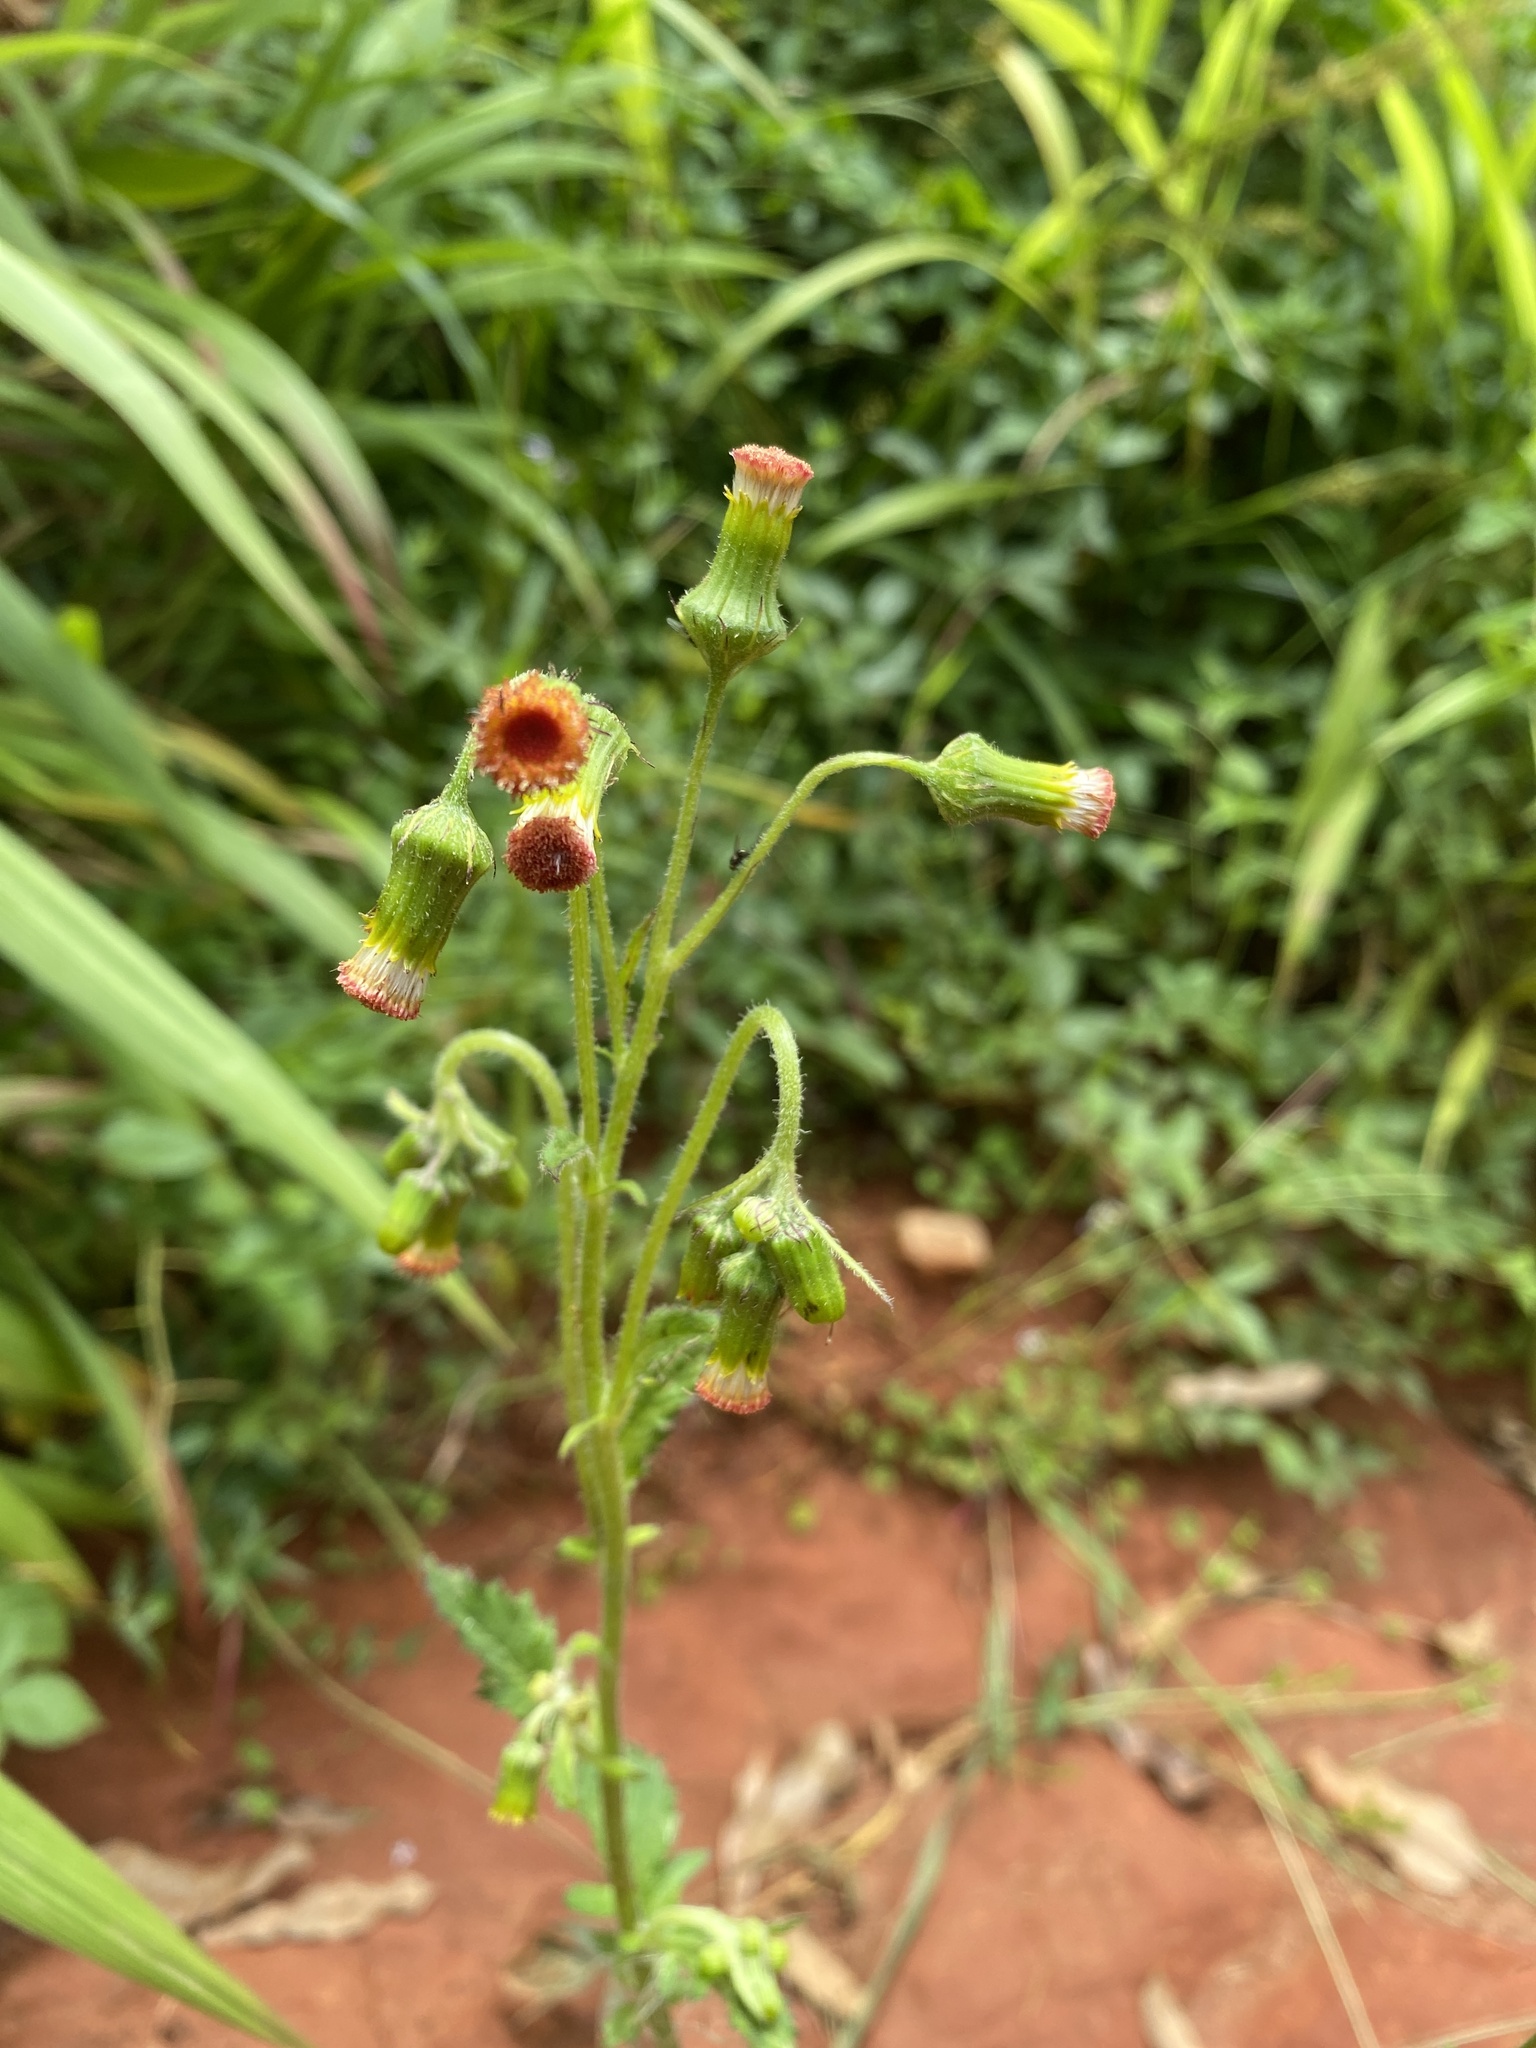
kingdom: Plantae
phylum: Tracheophyta
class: Magnoliopsida
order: Asterales
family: Asteraceae
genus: Crassocephalum
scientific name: Crassocephalum crepidioides
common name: Redflower ragleaf
